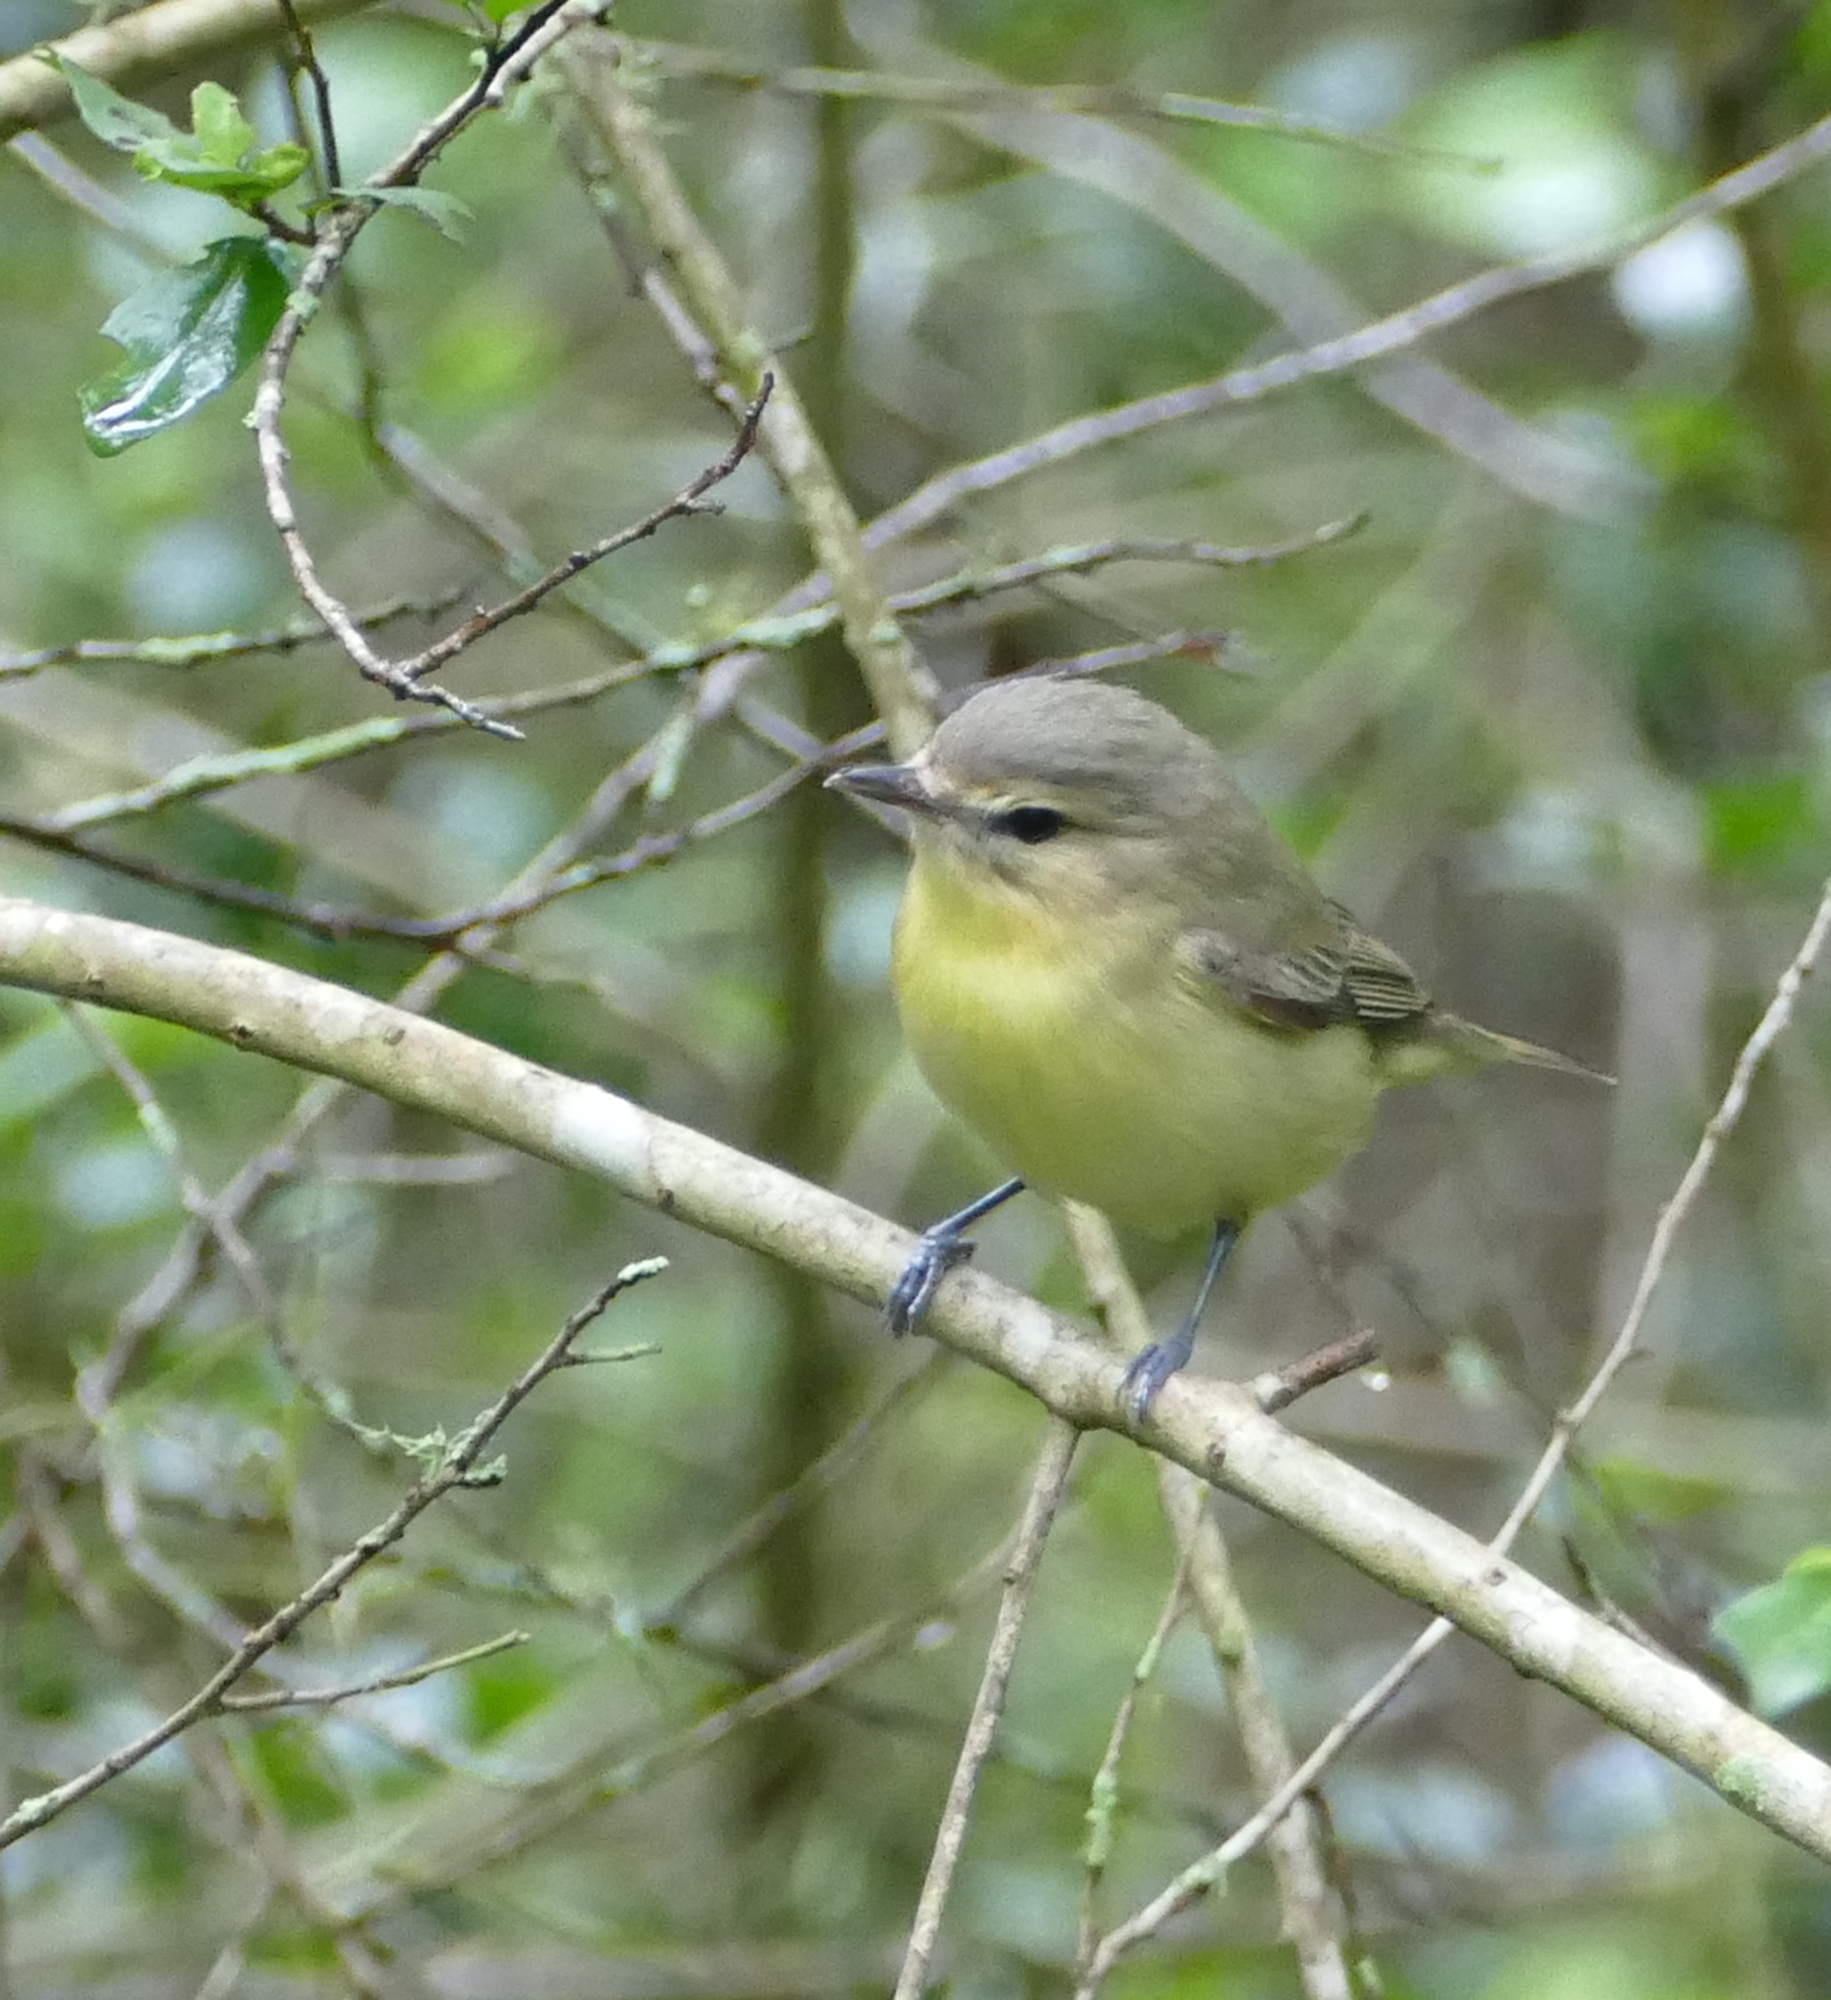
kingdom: Animalia
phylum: Chordata
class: Aves
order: Passeriformes
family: Vireonidae
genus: Vireo
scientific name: Vireo philadelphicus
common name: Philadelphia vireo
